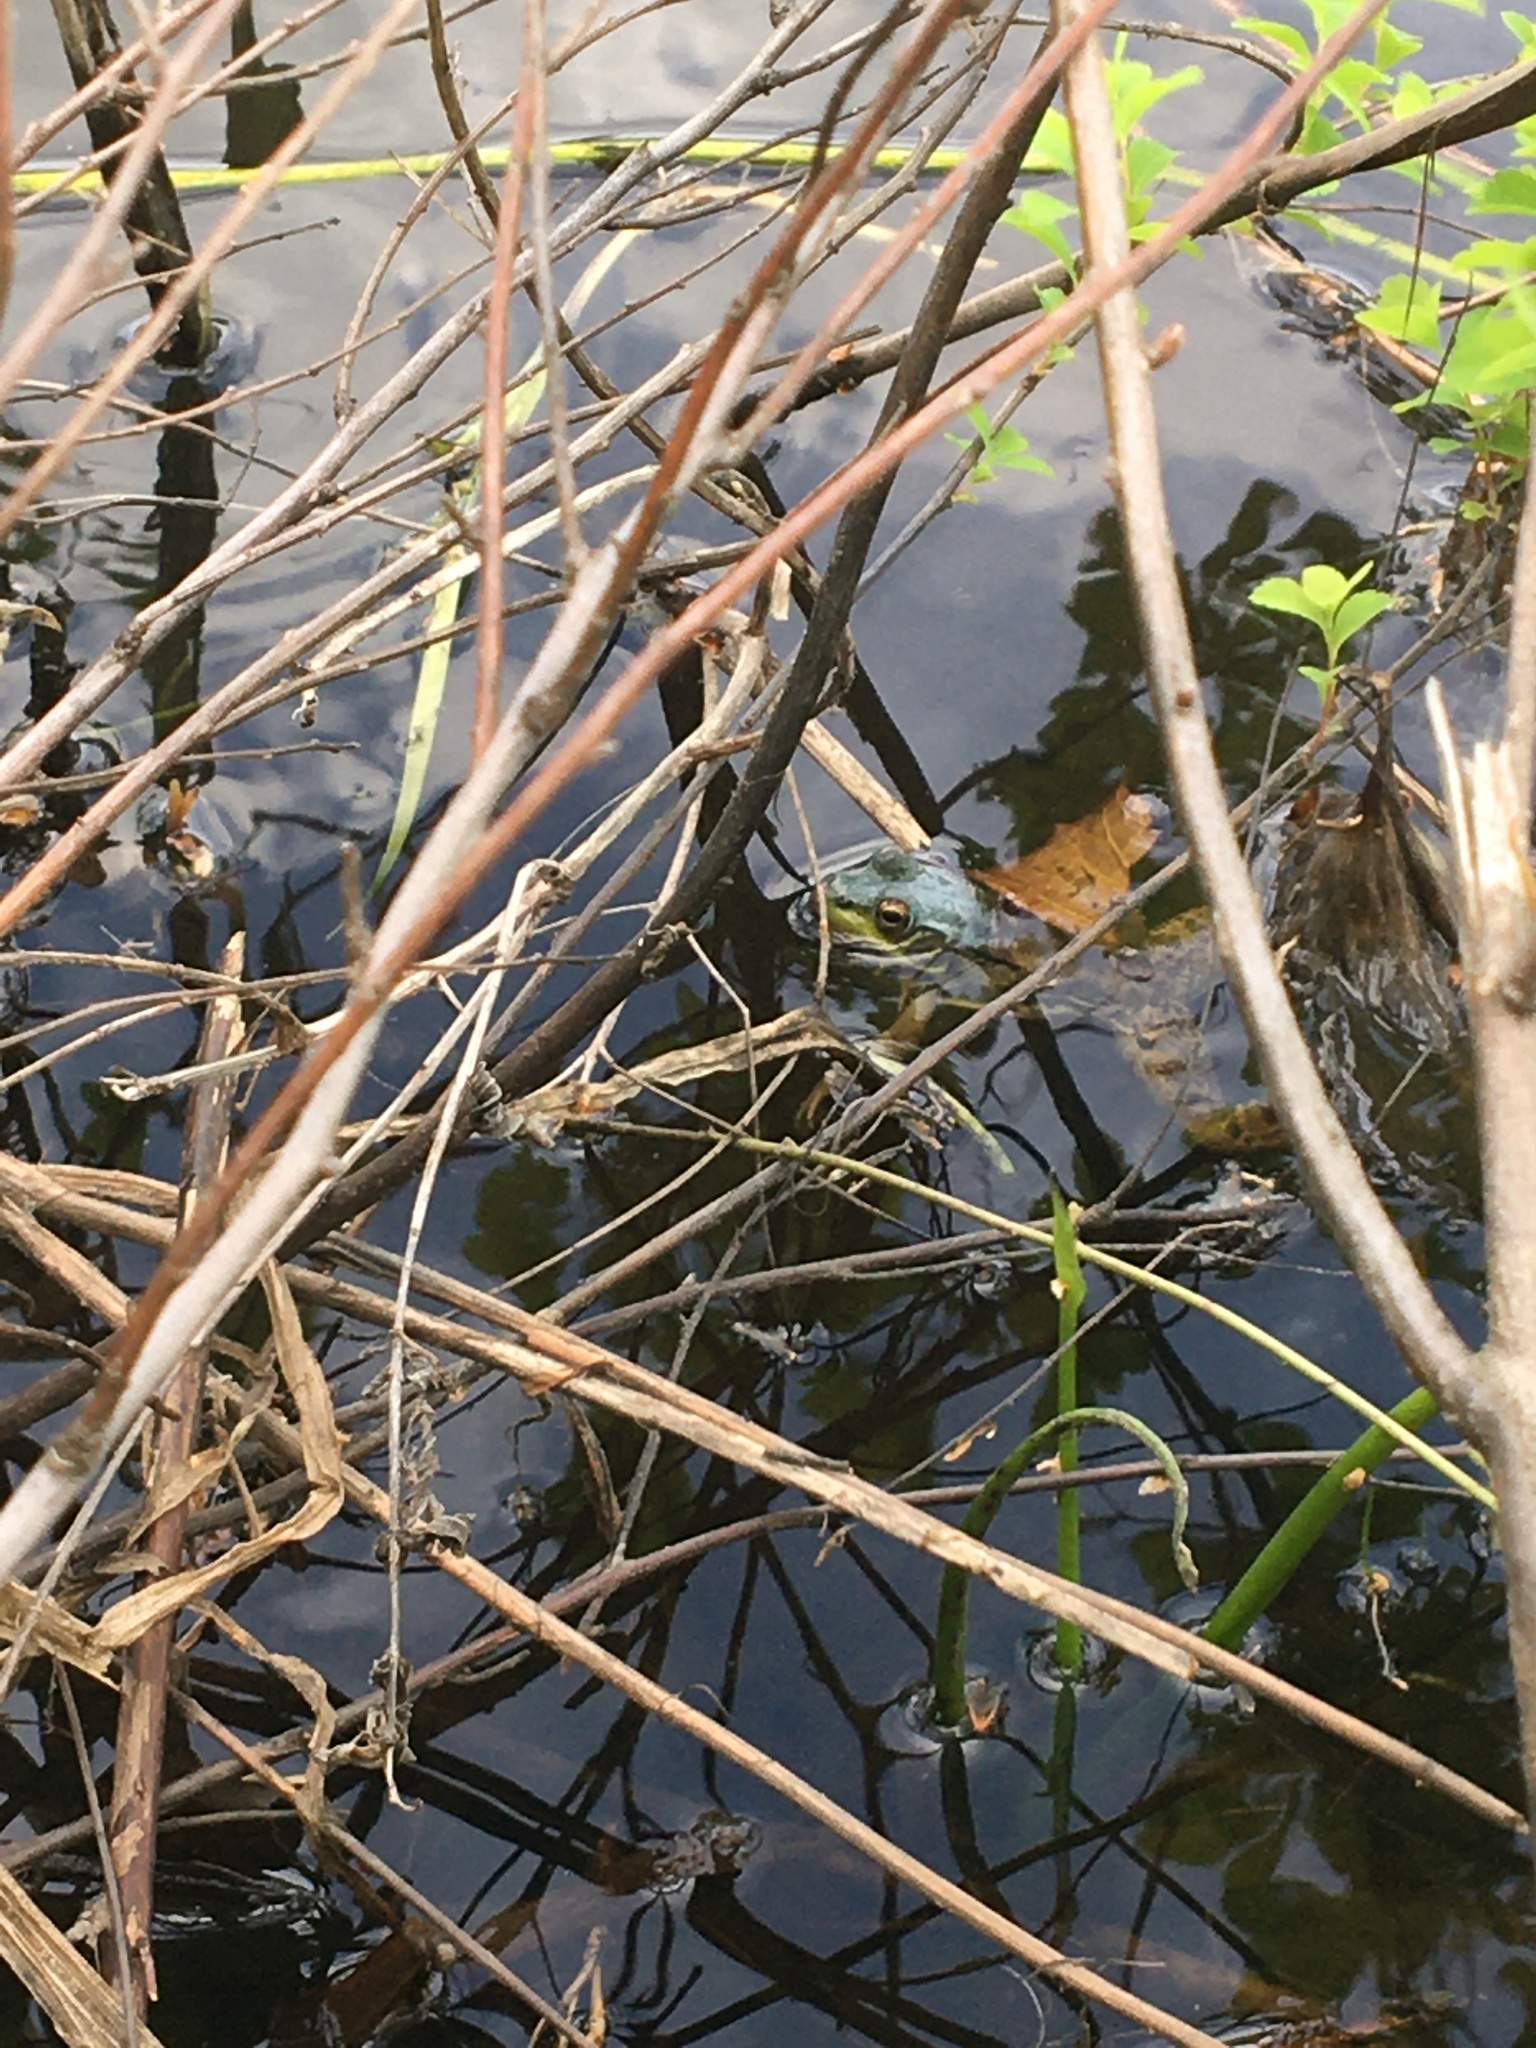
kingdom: Animalia
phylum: Chordata
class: Amphibia
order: Anura
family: Ranidae
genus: Lithobates
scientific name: Lithobates clamitans
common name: Green frog
